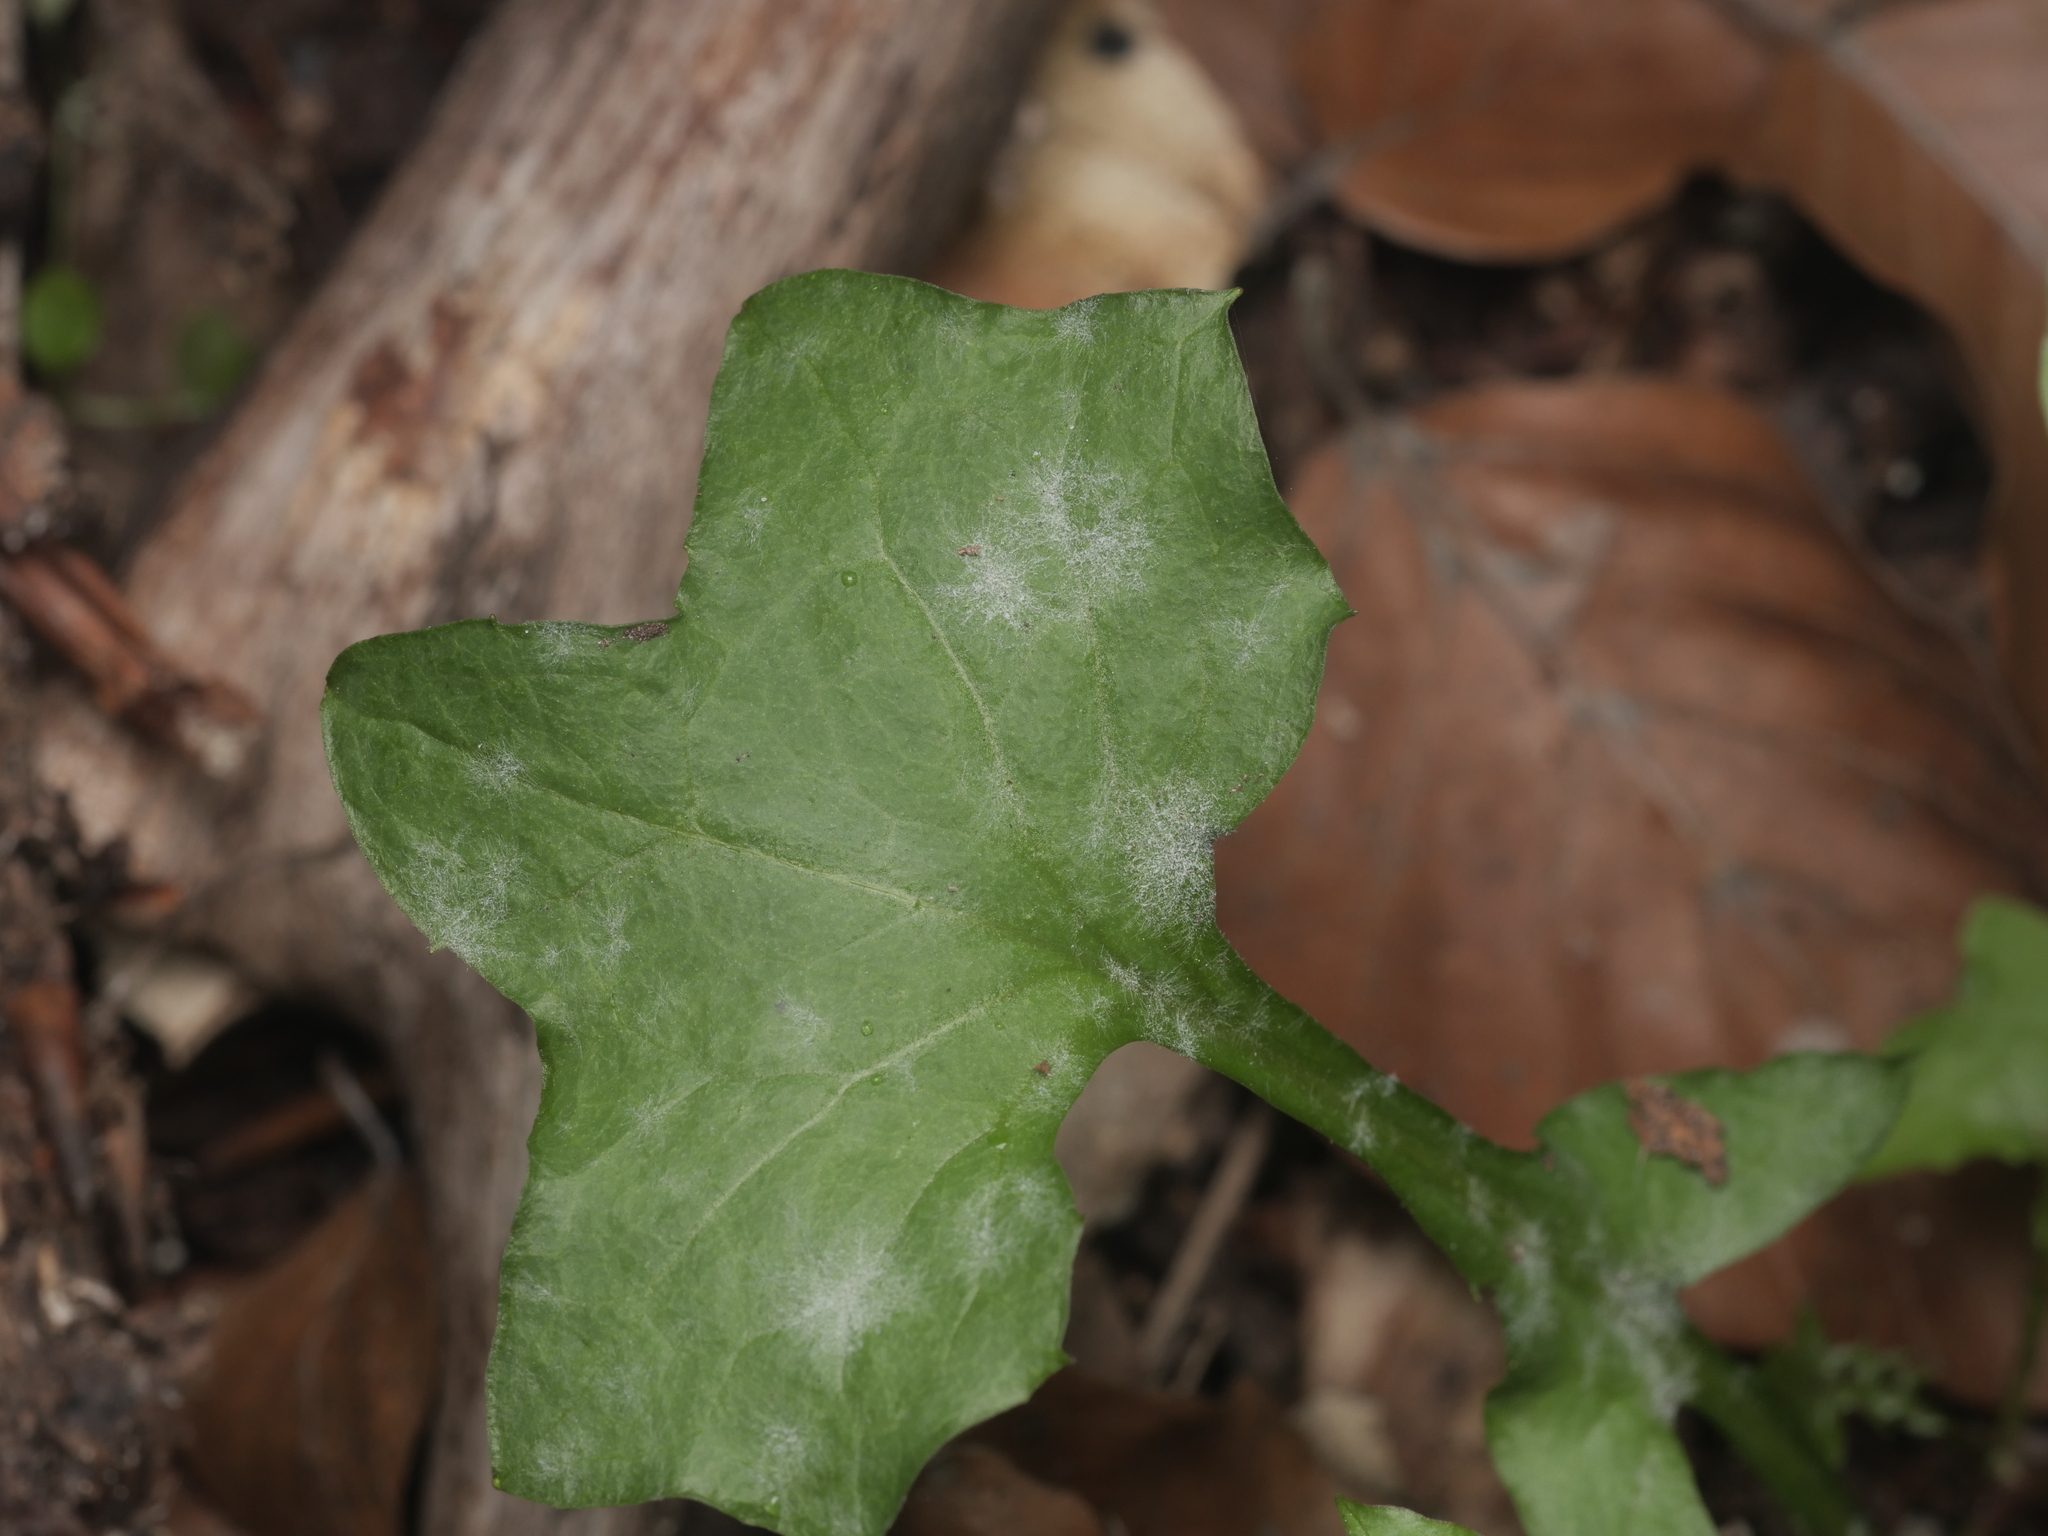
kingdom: Fungi
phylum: Ascomycota
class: Leotiomycetes
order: Helotiales
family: Erysiphaceae
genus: Golovinomyces
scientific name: Golovinomyces bolayi
